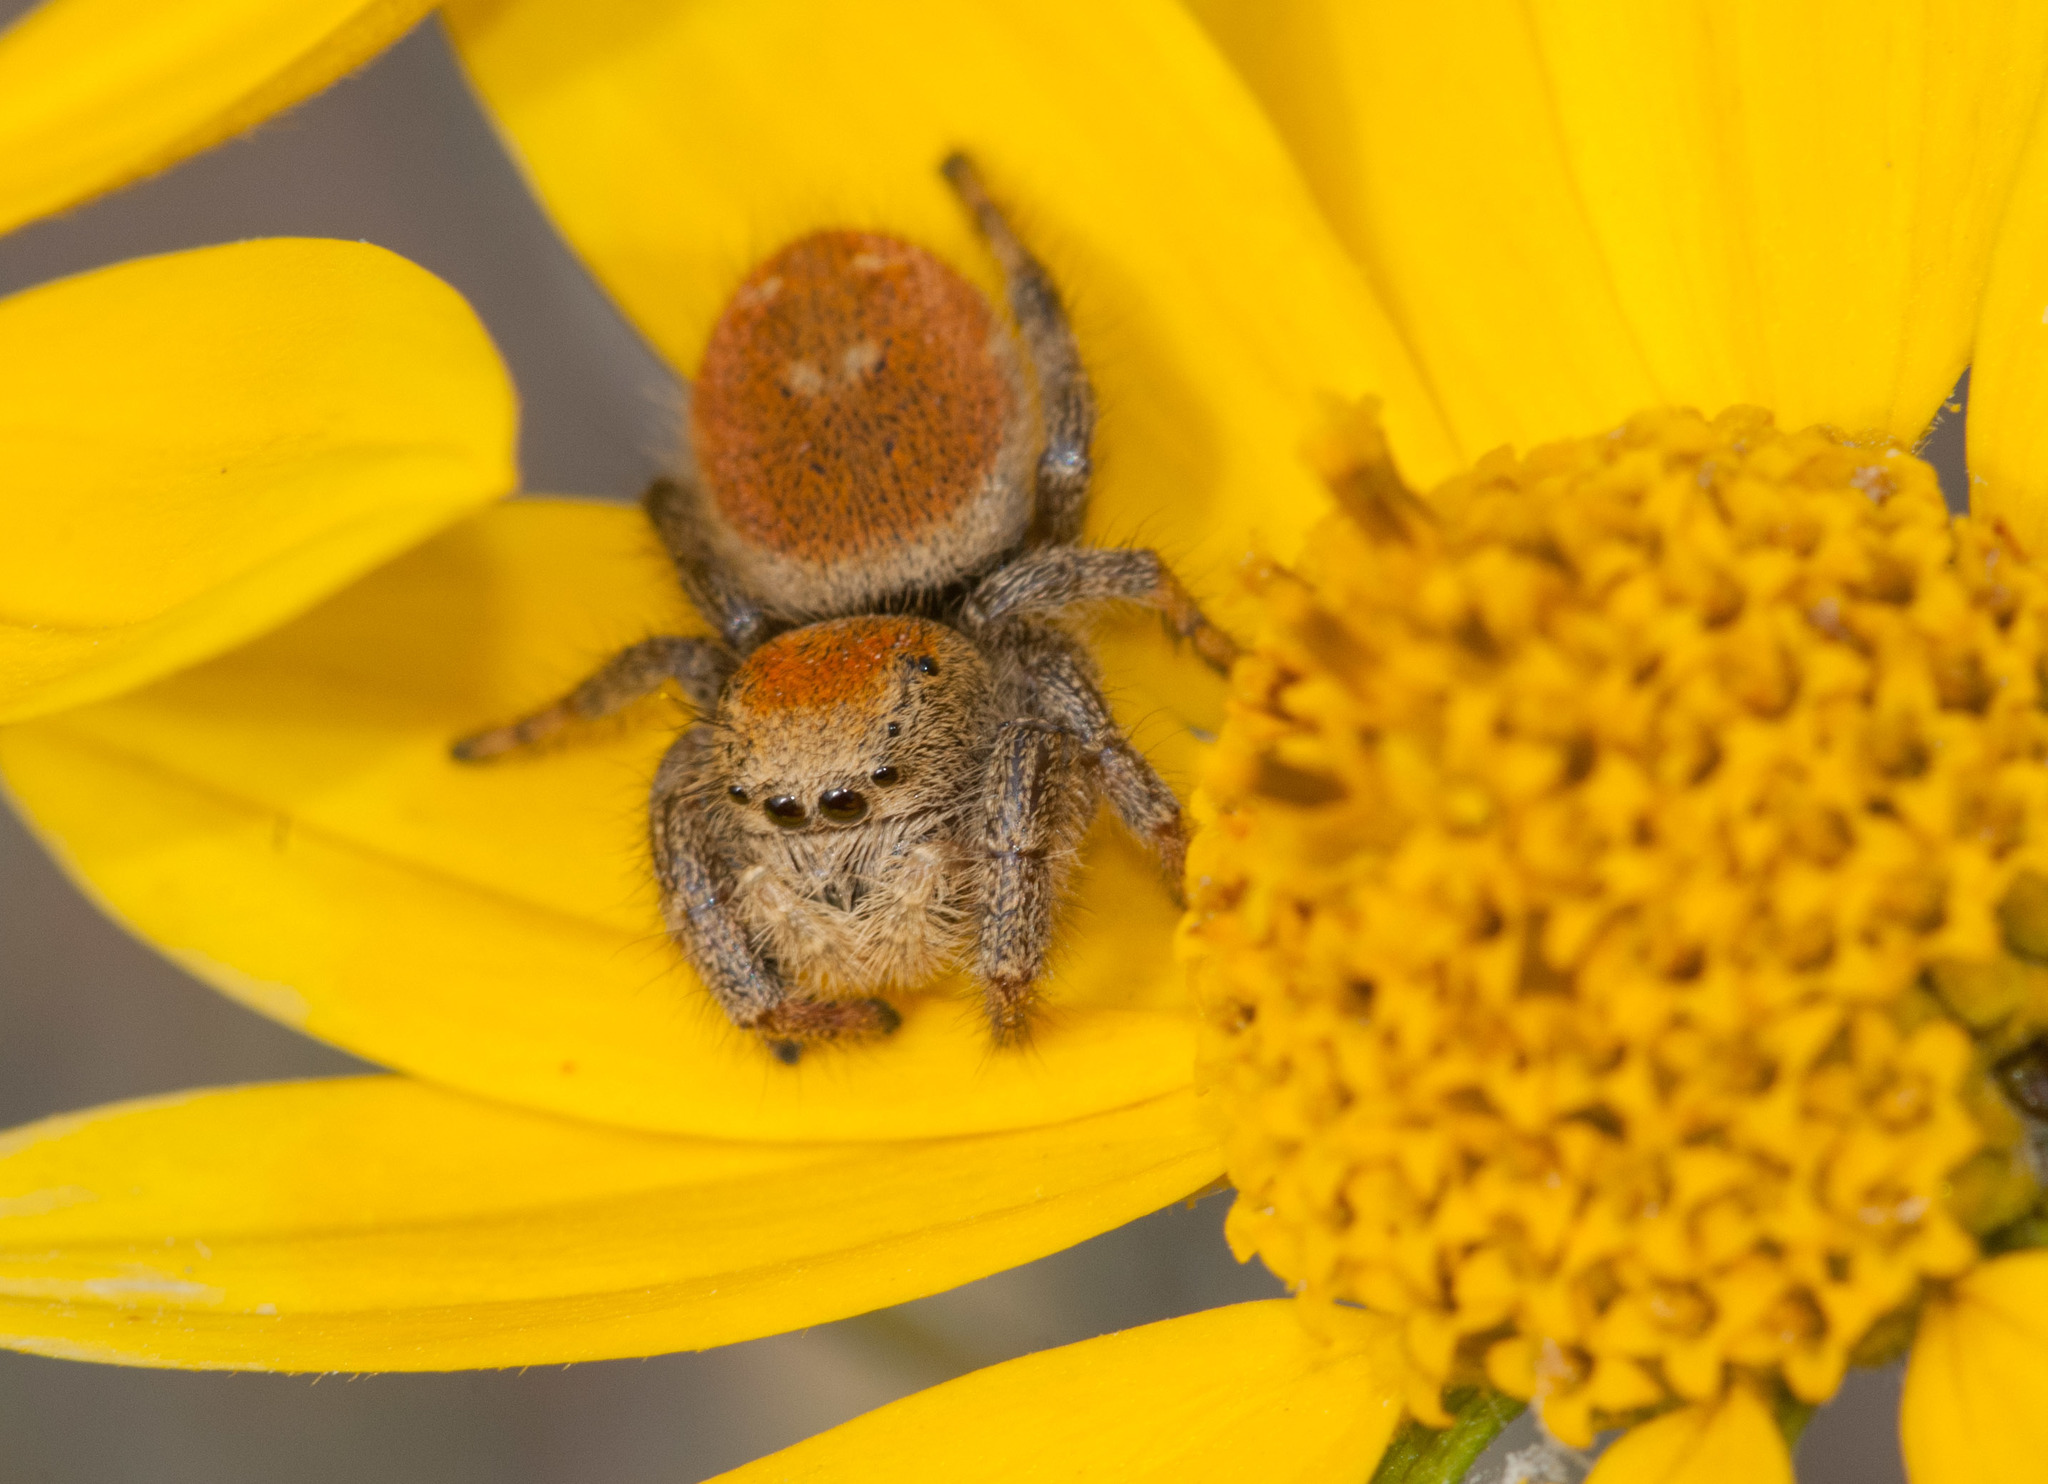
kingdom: Animalia
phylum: Arthropoda
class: Arachnida
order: Araneae
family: Salticidae
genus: Phidippus
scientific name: Phidippus apacheanus
